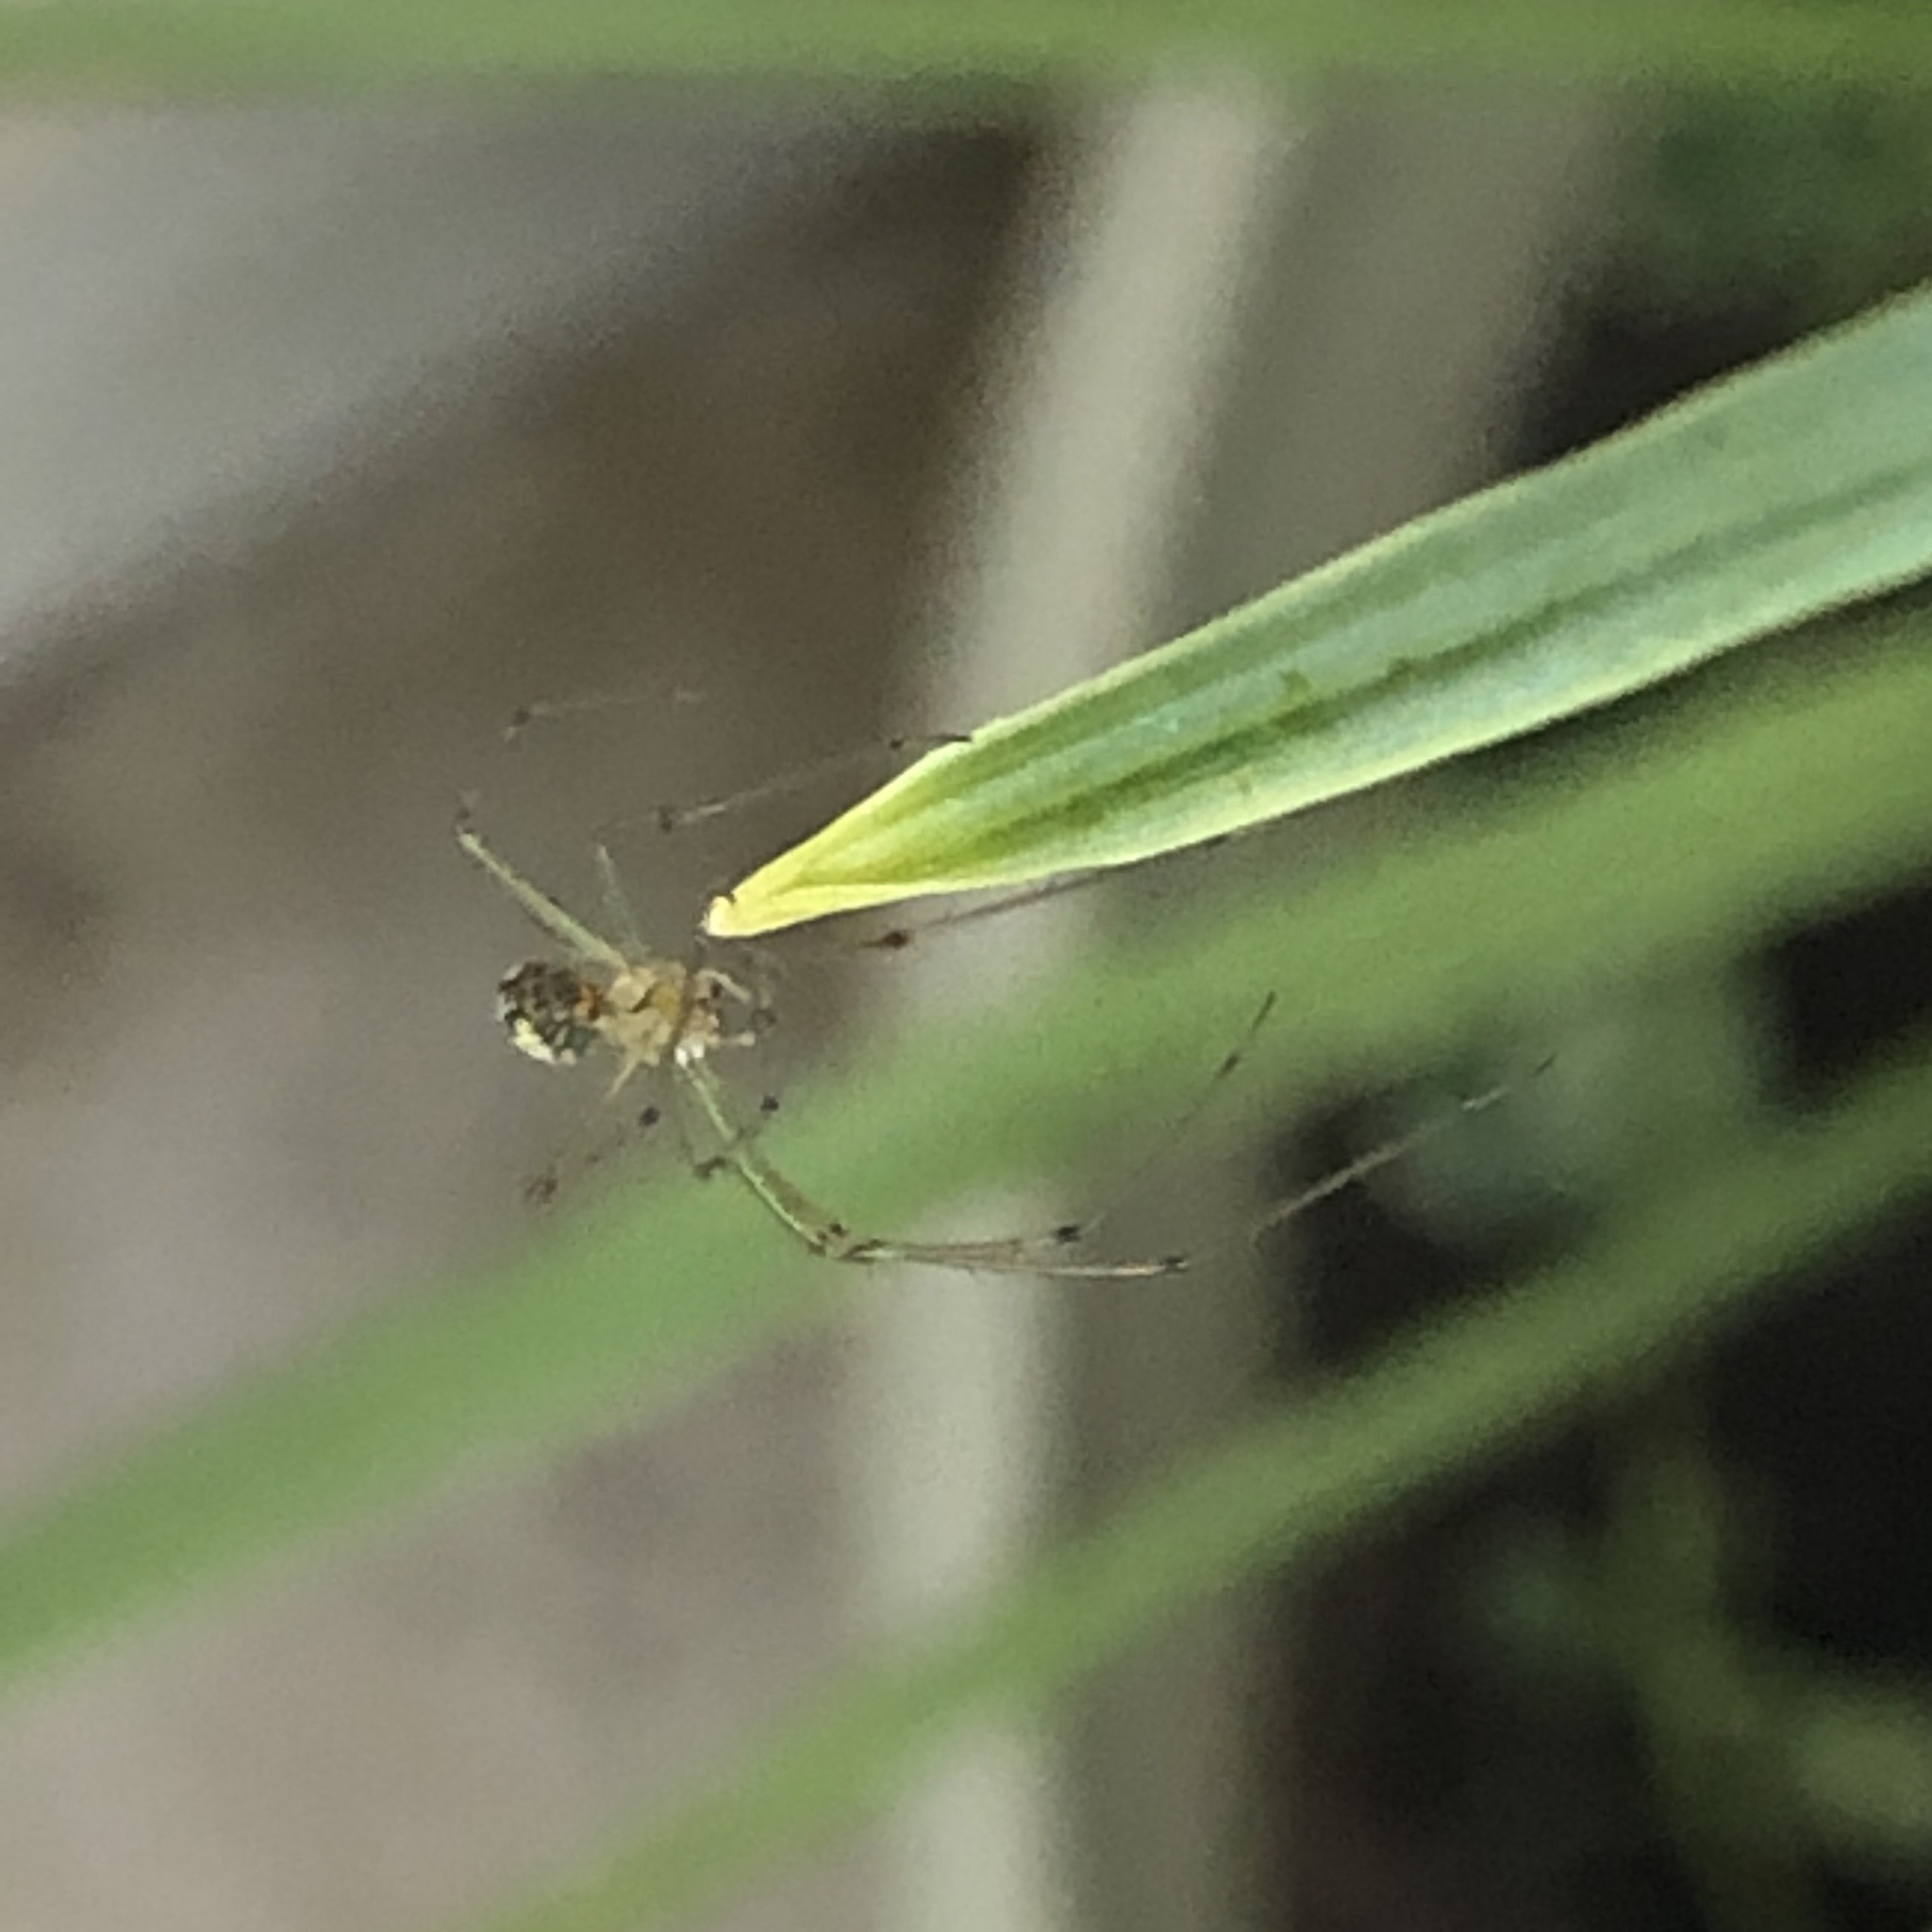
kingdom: Animalia
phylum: Arthropoda
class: Arachnida
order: Araneae
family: Tetragnathidae
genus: Leucauge
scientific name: Leucauge venusta
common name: Longjawed orb weavers
